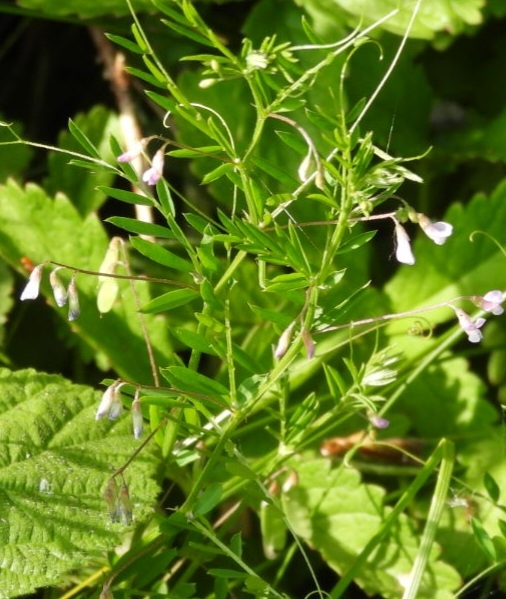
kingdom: Plantae
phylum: Tracheophyta
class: Magnoliopsida
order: Fabales
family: Fabaceae
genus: Vicia
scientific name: Vicia tetrasperma
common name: Smooth tare
